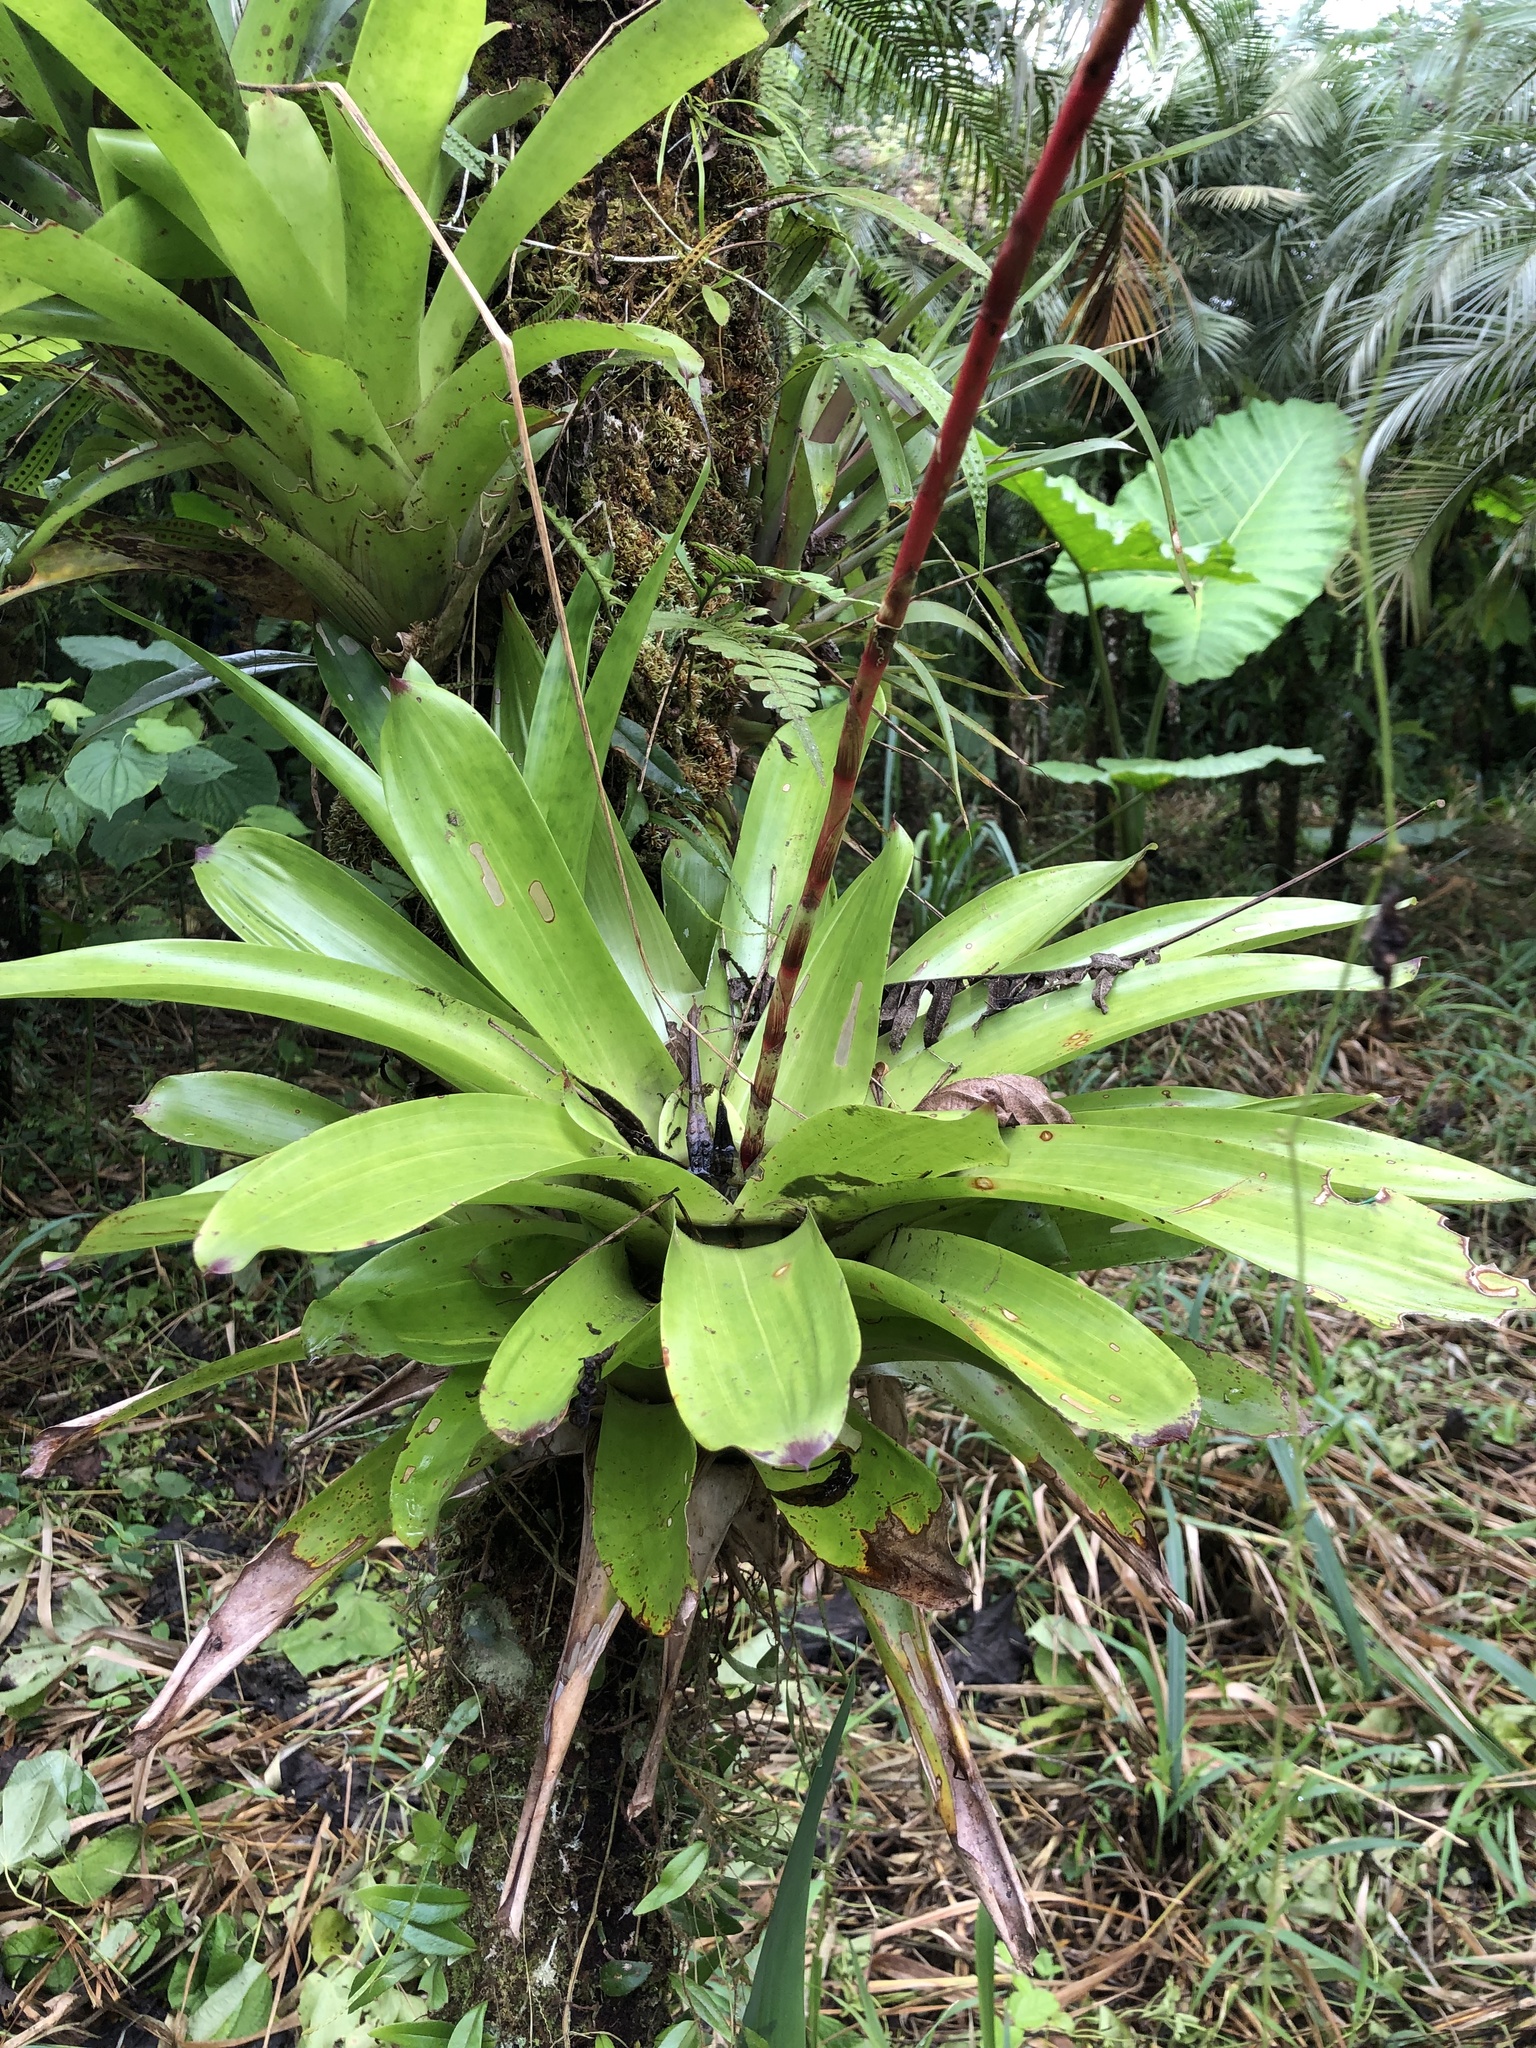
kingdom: Plantae
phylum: Tracheophyta
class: Liliopsida
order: Poales
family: Bromeliaceae
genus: Guzmania
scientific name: Guzmania rhonhofiana
